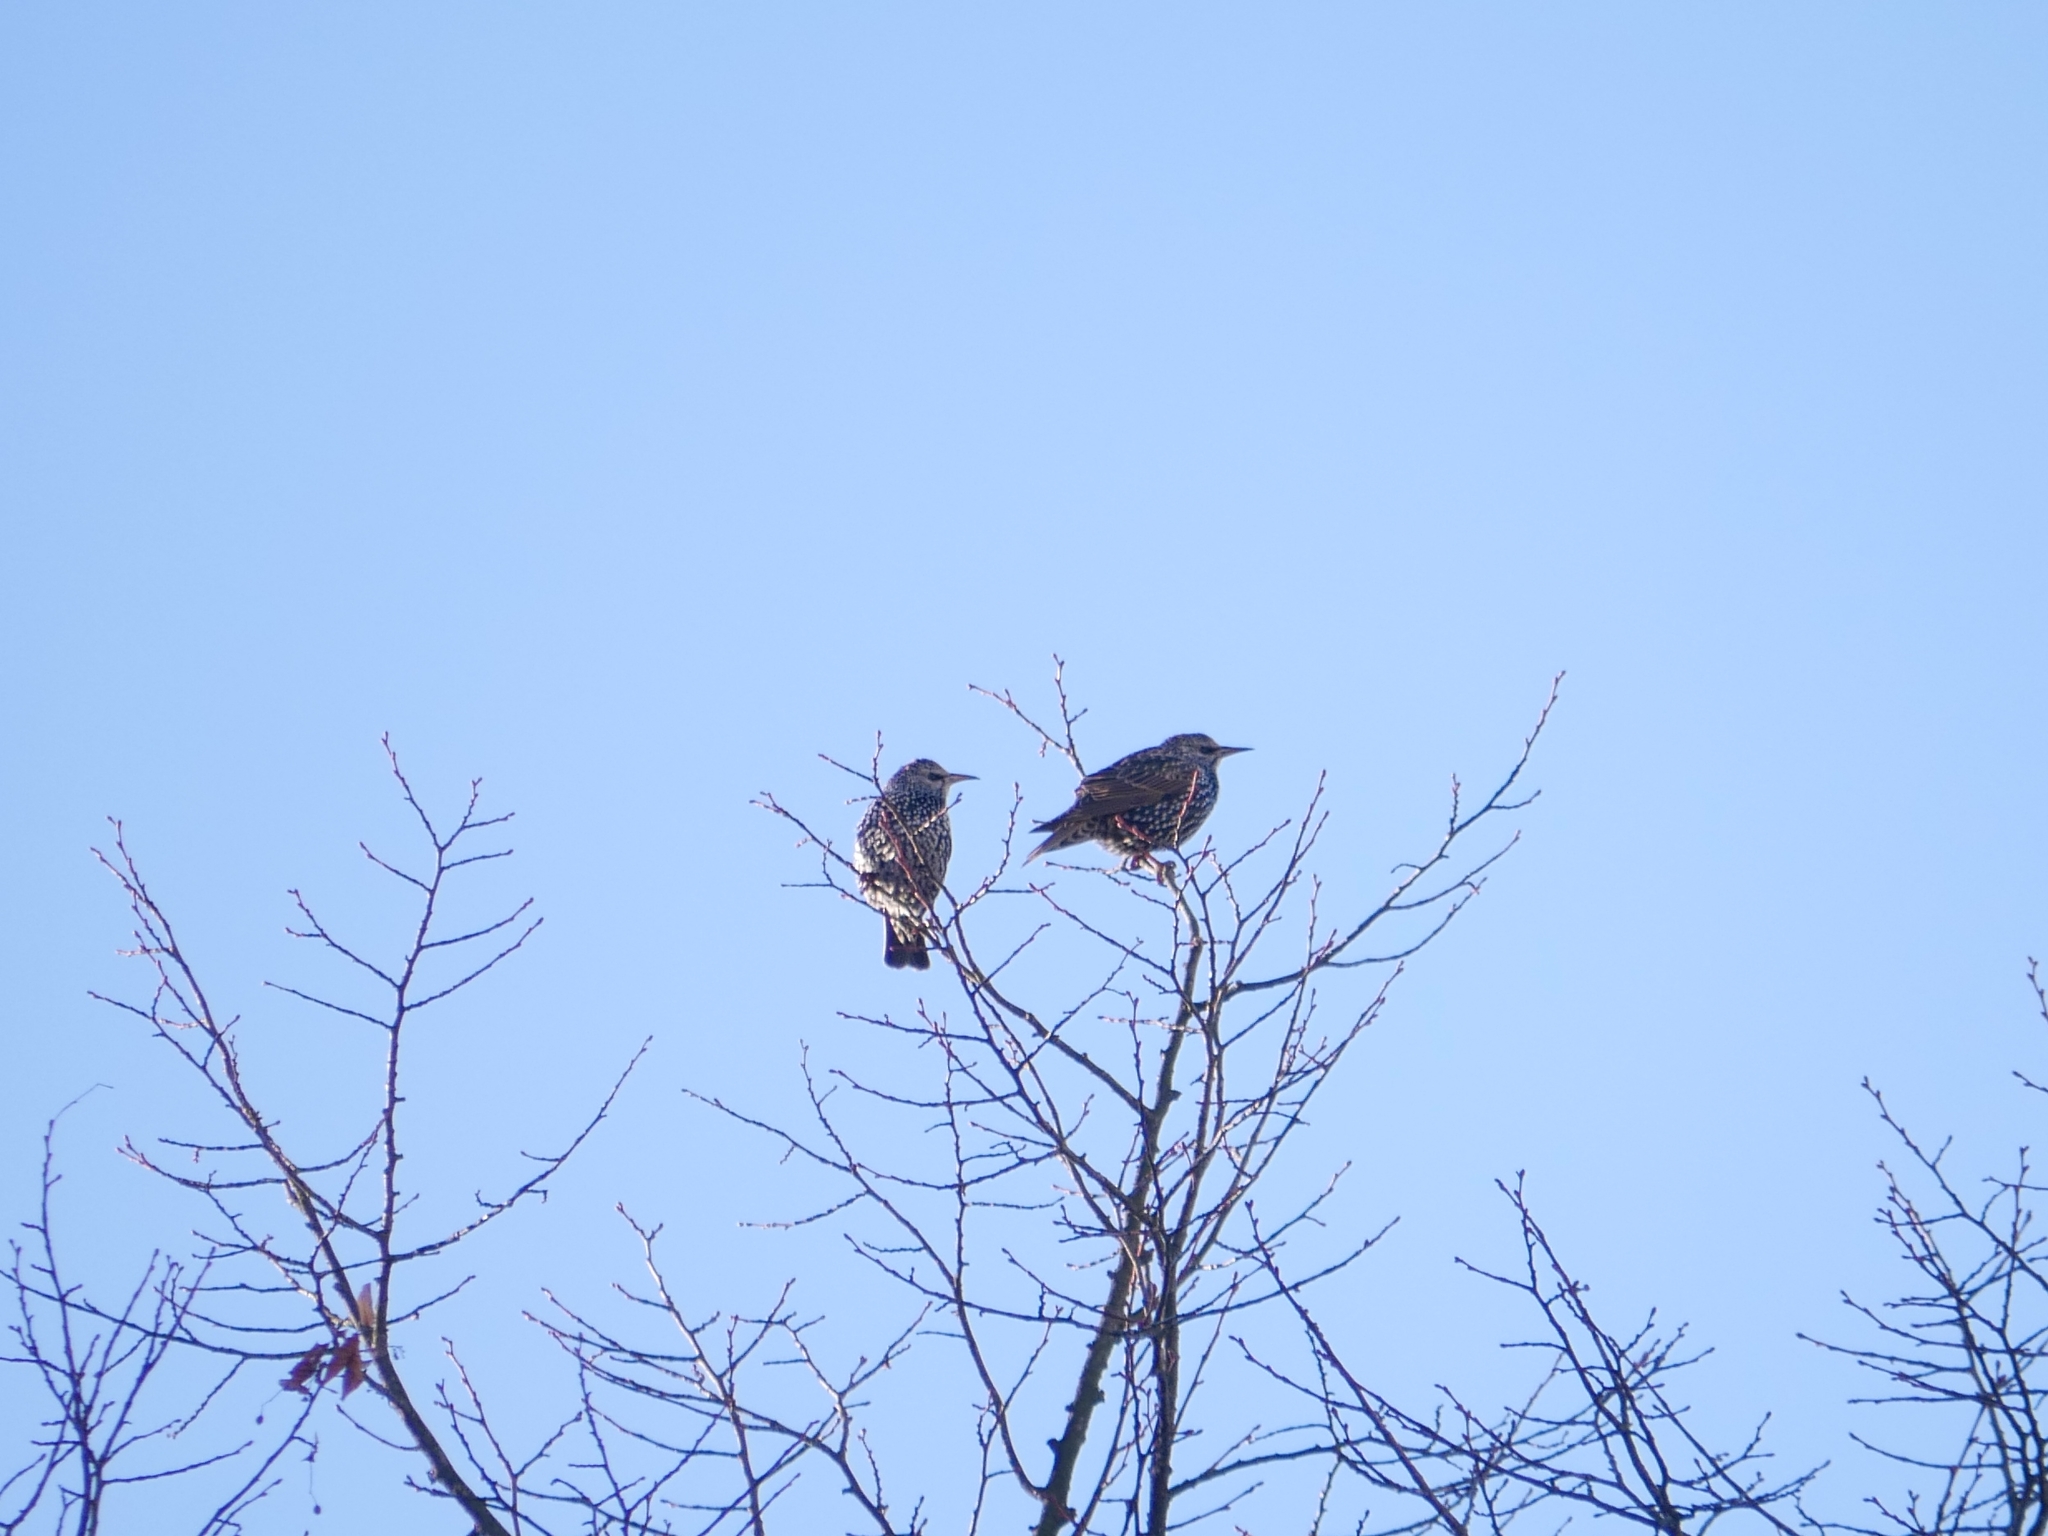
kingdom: Animalia
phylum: Chordata
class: Aves
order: Passeriformes
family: Sturnidae
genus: Sturnus
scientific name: Sturnus vulgaris
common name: Common starling
